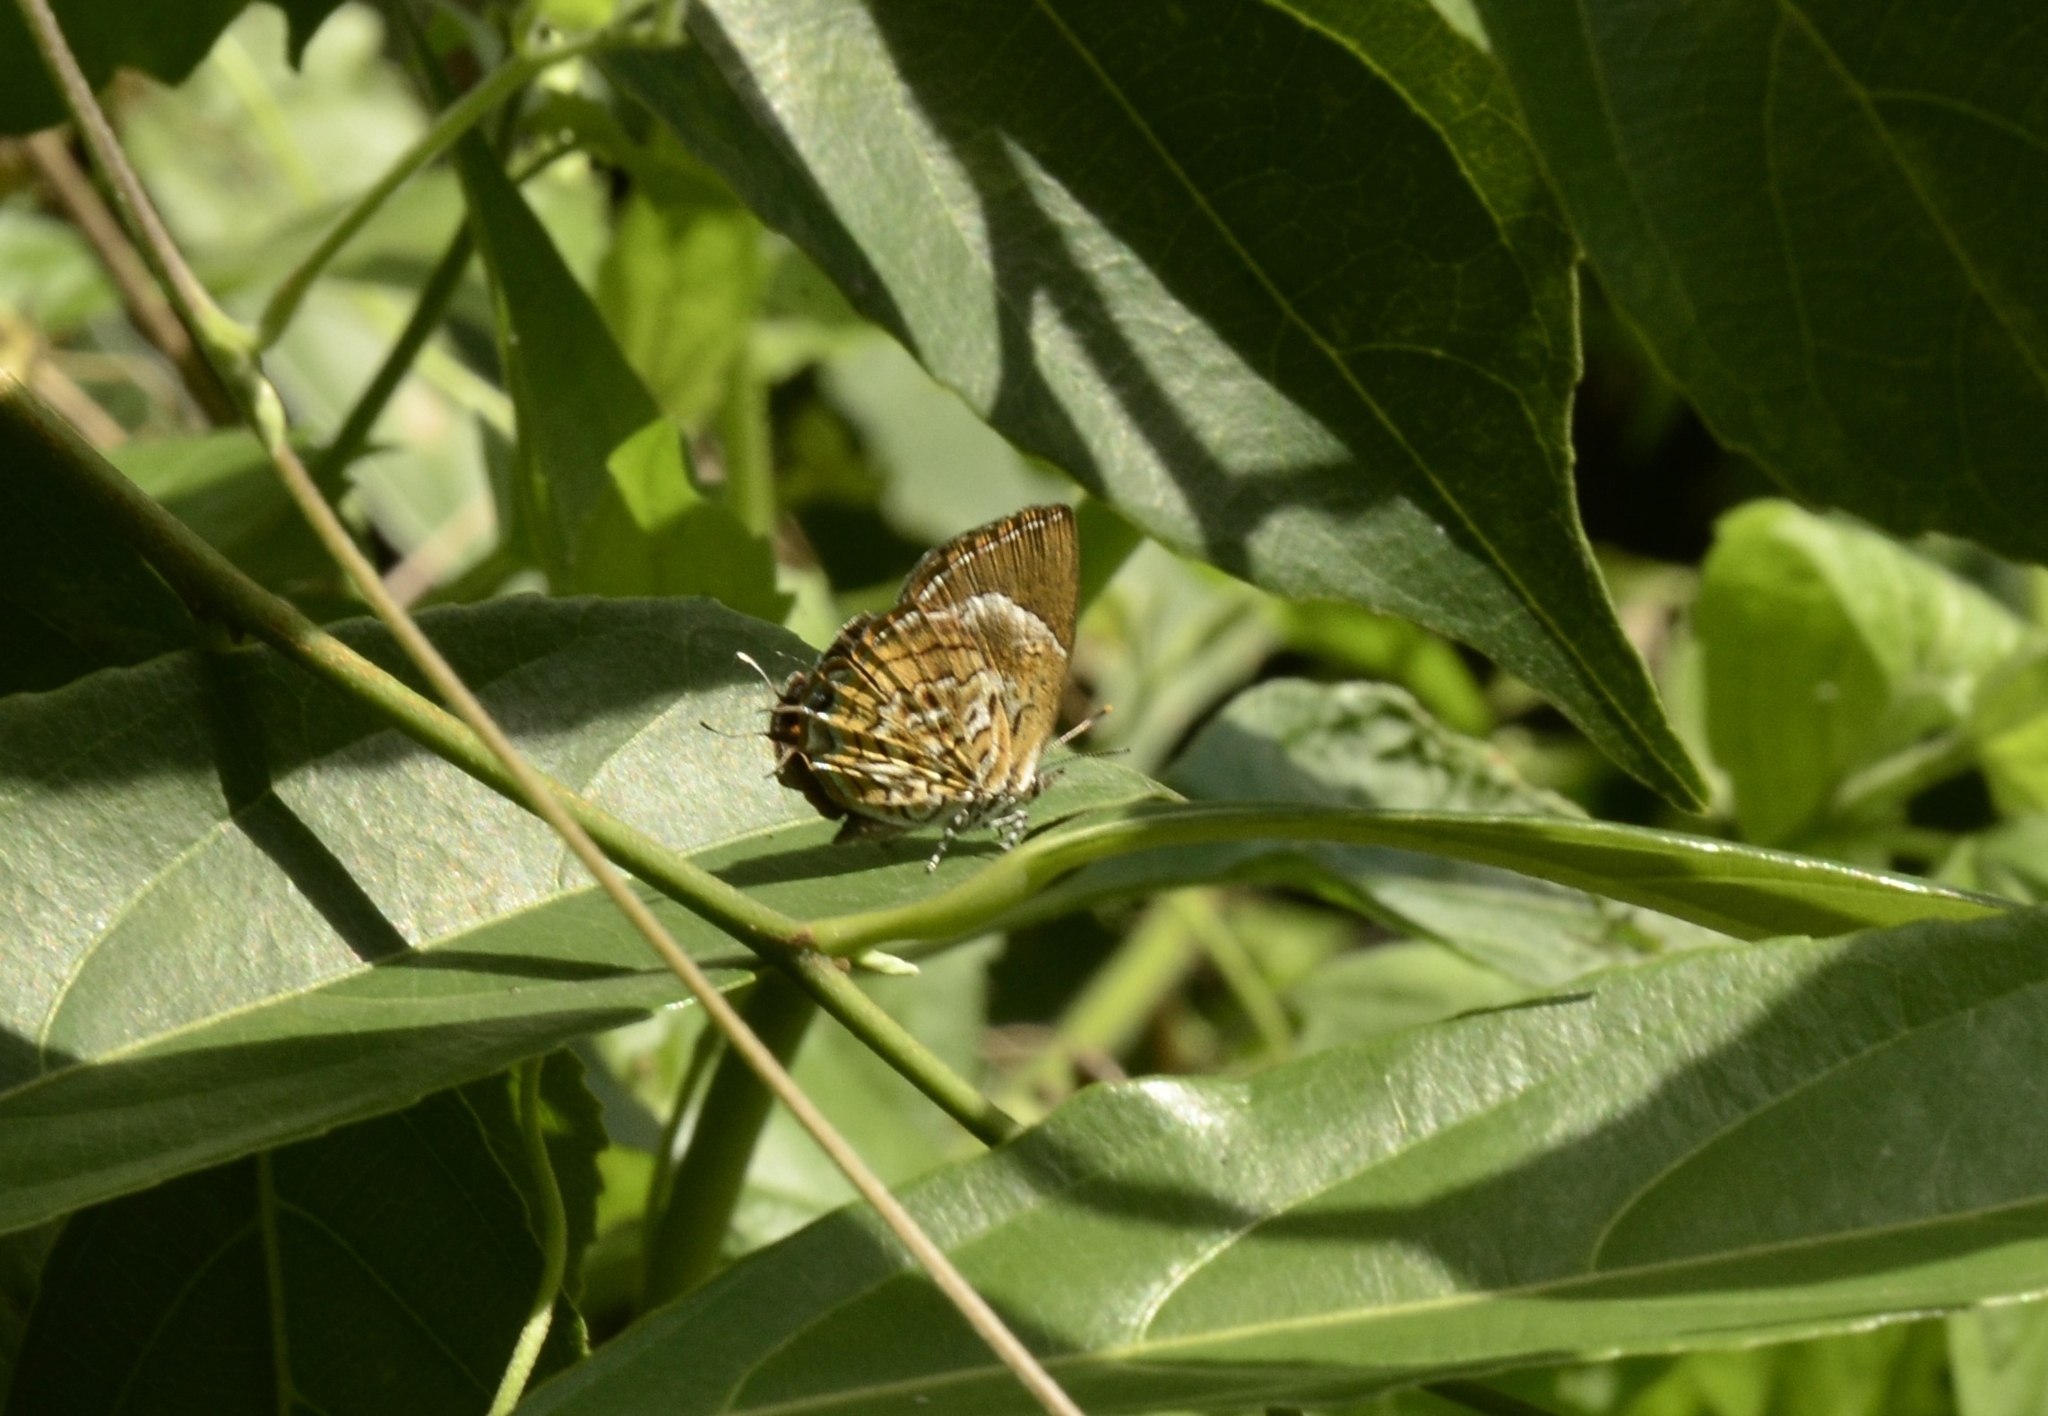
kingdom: Animalia
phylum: Arthropoda
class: Insecta
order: Lepidoptera
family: Lycaenidae
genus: Rathinda
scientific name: Rathinda amor
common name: Monkey puzzle
